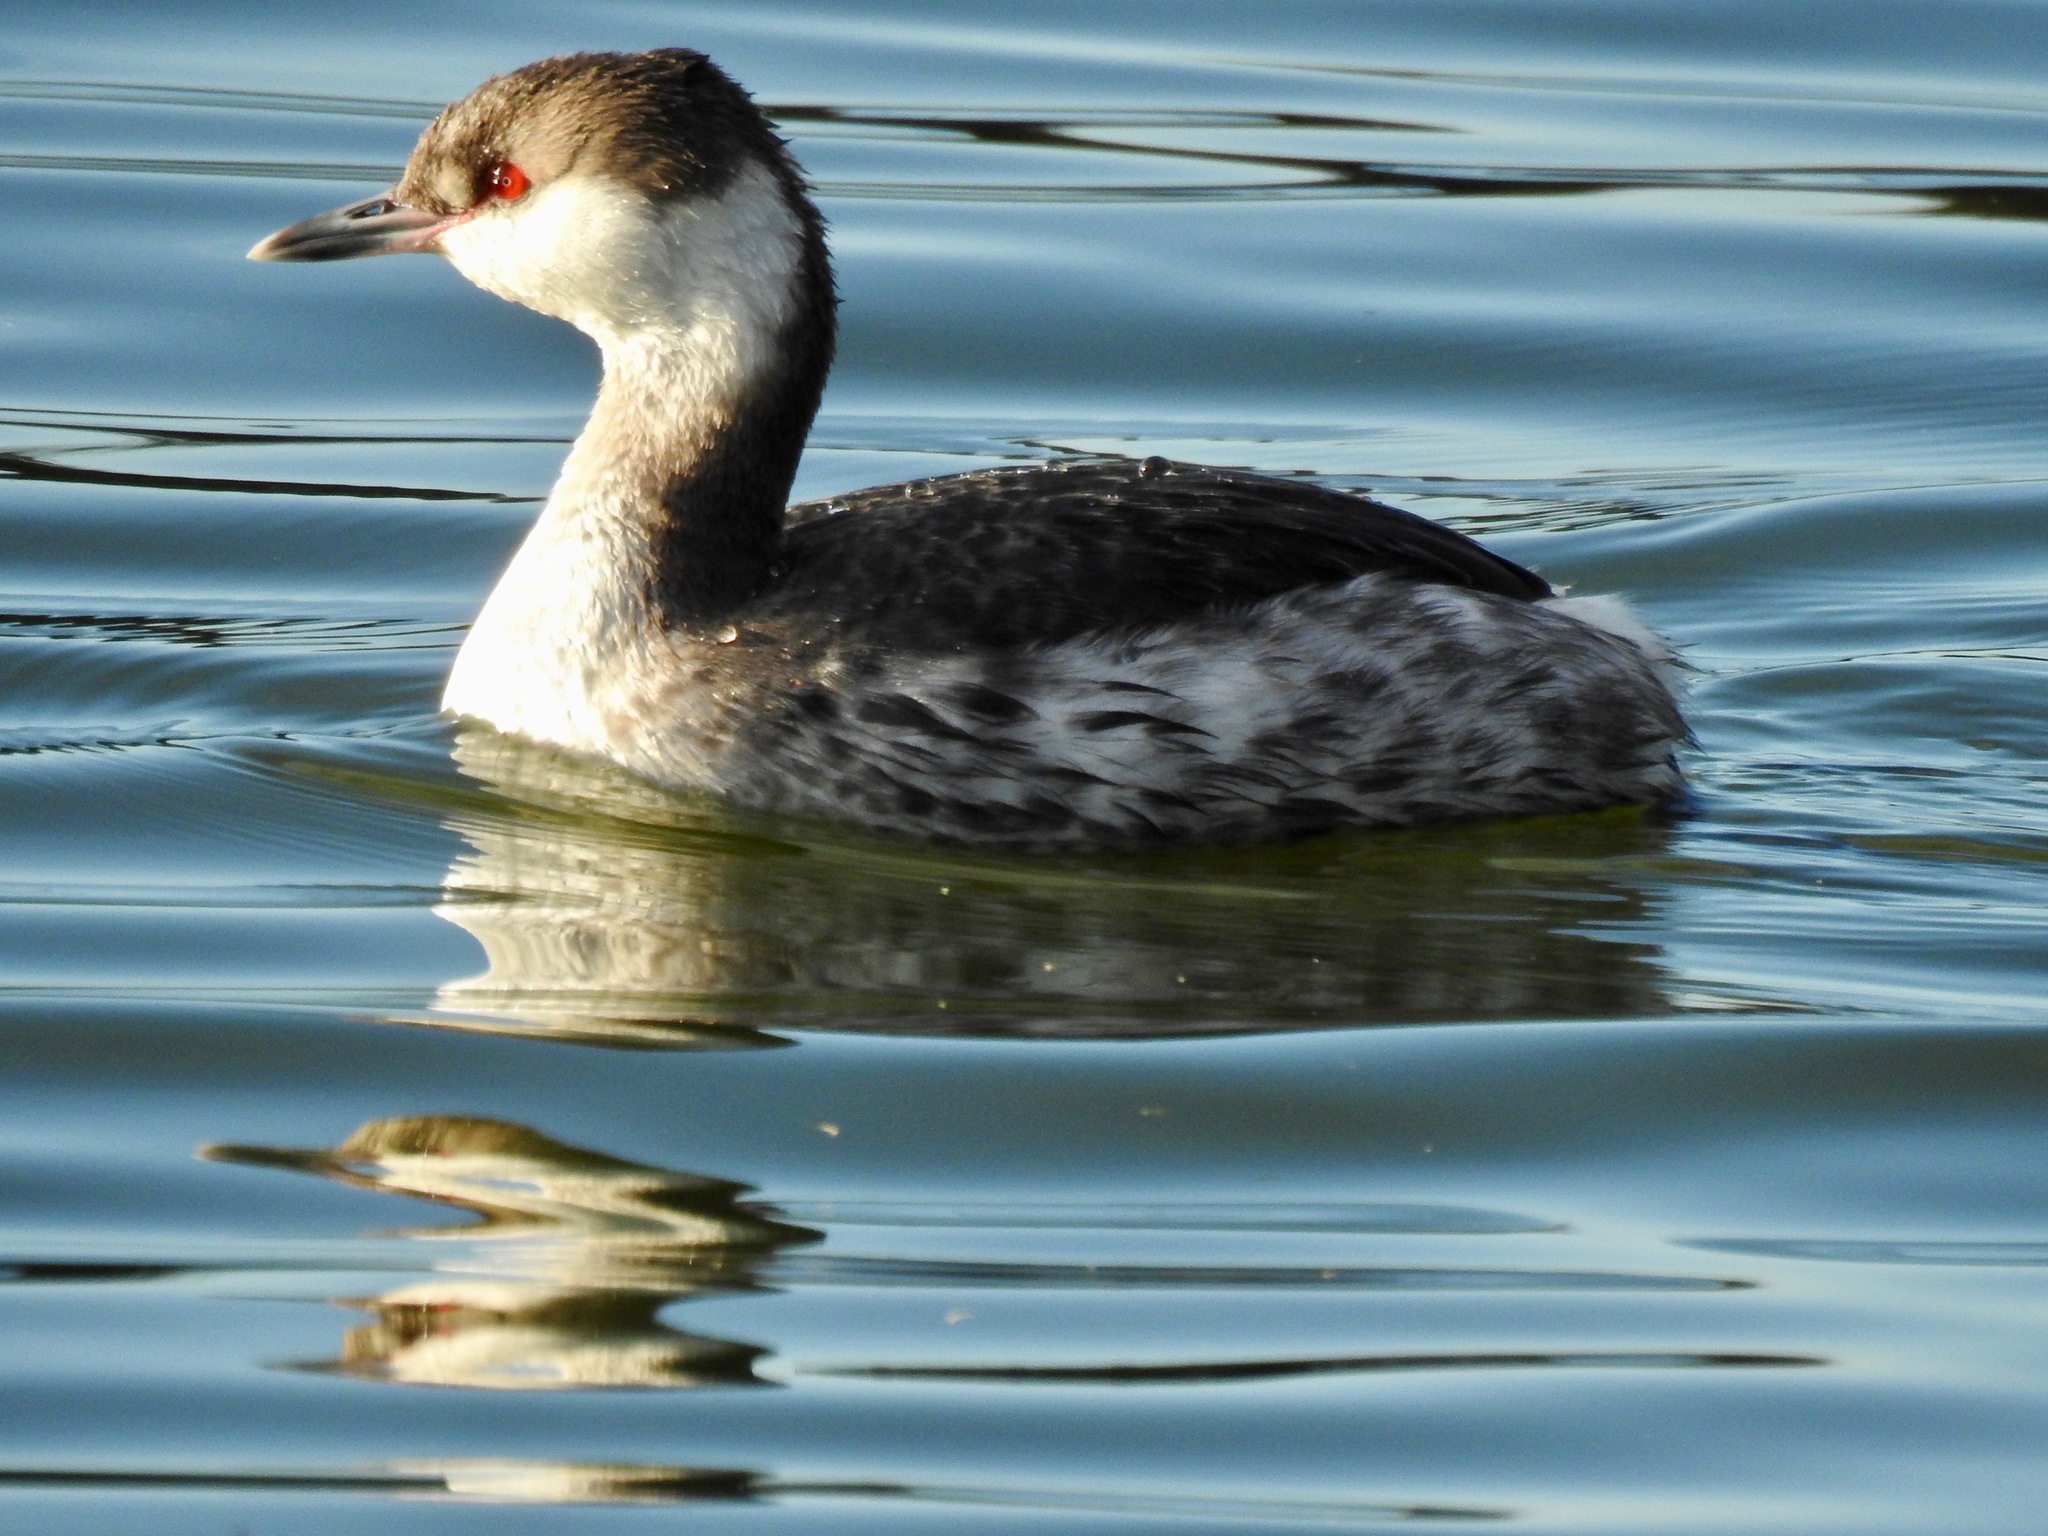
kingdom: Animalia
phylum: Chordata
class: Aves
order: Podicipediformes
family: Podicipedidae
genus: Podiceps
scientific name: Podiceps auritus
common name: Horned grebe
